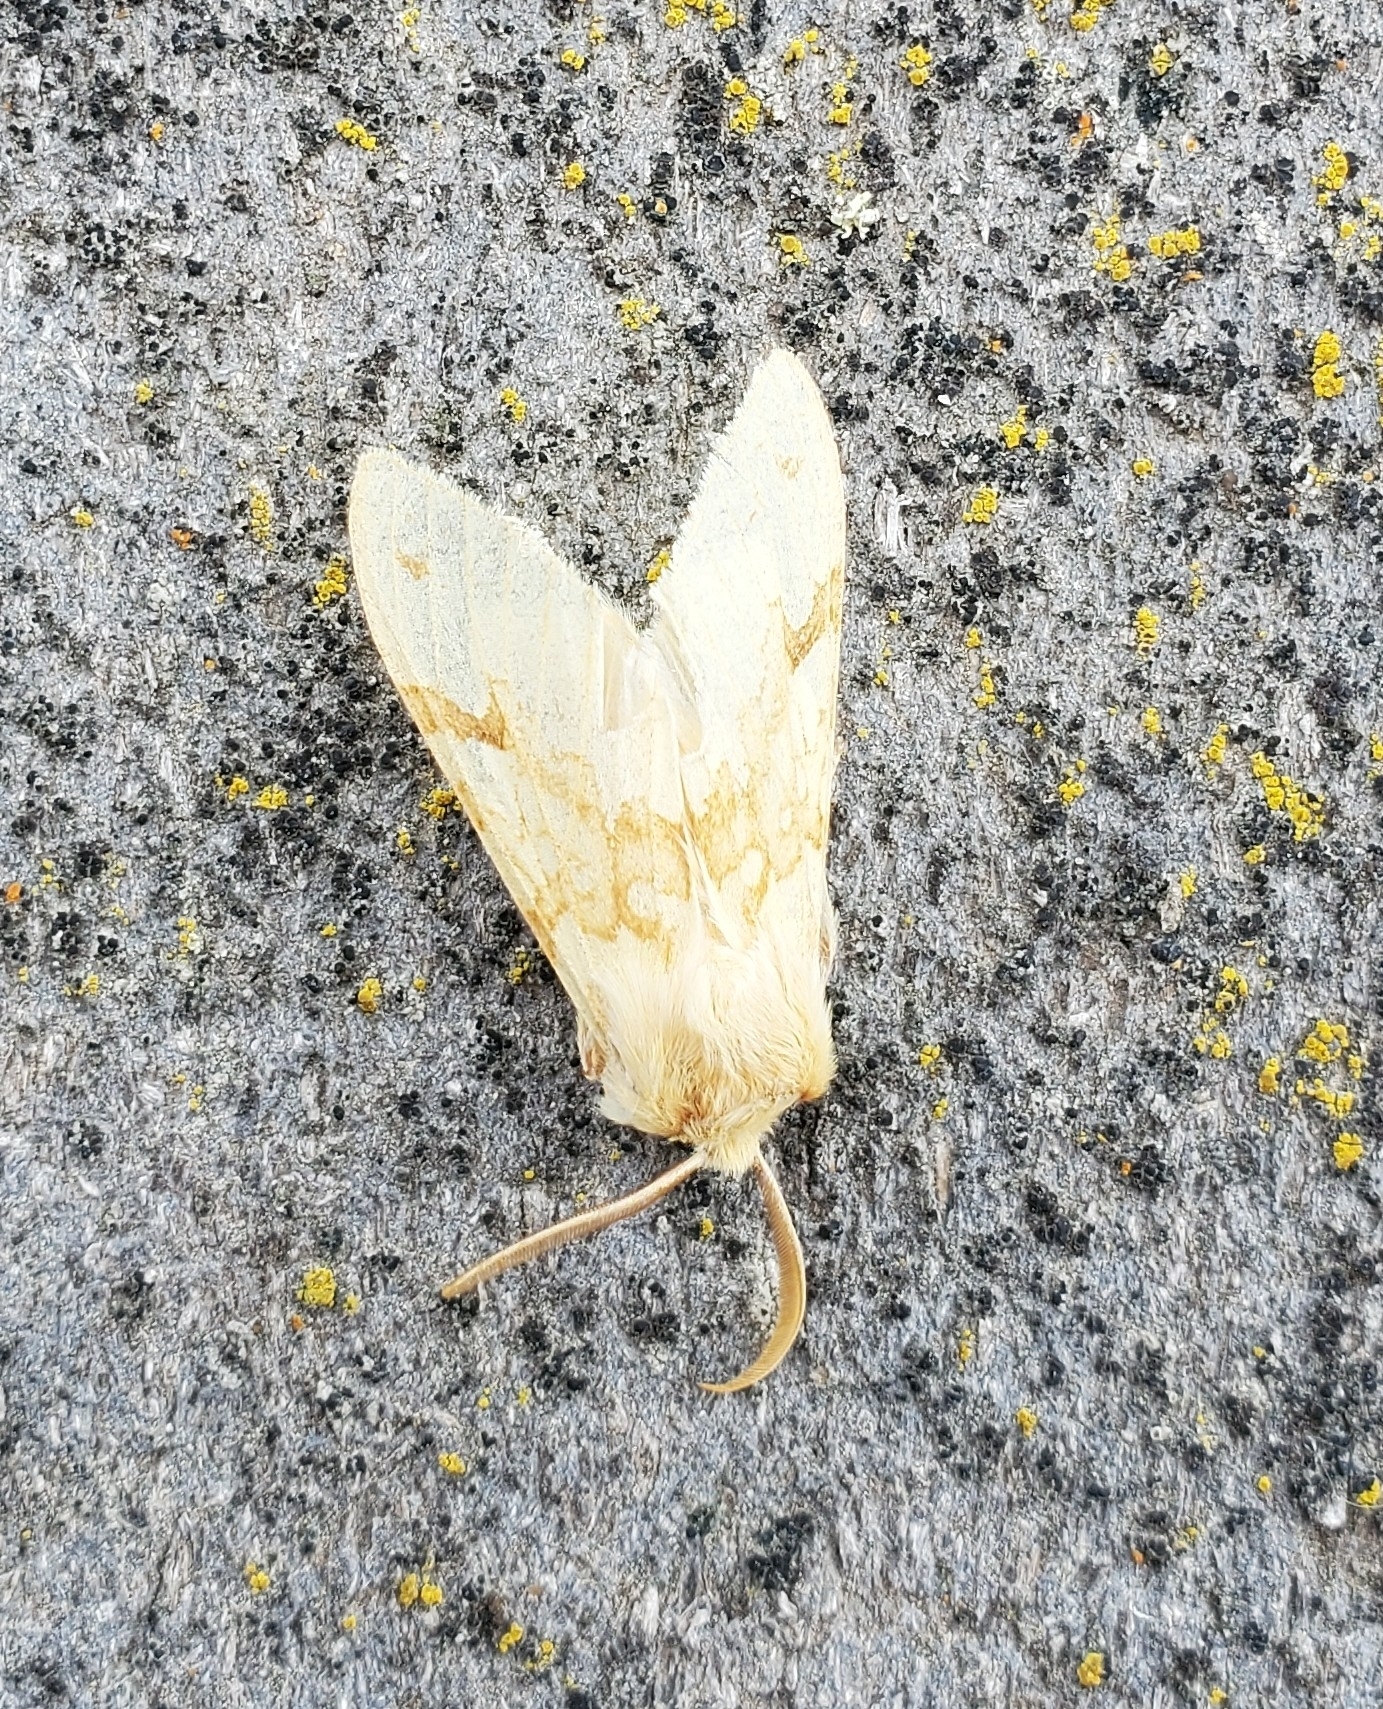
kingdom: Animalia
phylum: Arthropoda
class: Insecta
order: Lepidoptera
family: Erebidae
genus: Lophocampa
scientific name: Lophocampa maculata
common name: Spotted tussock moth
